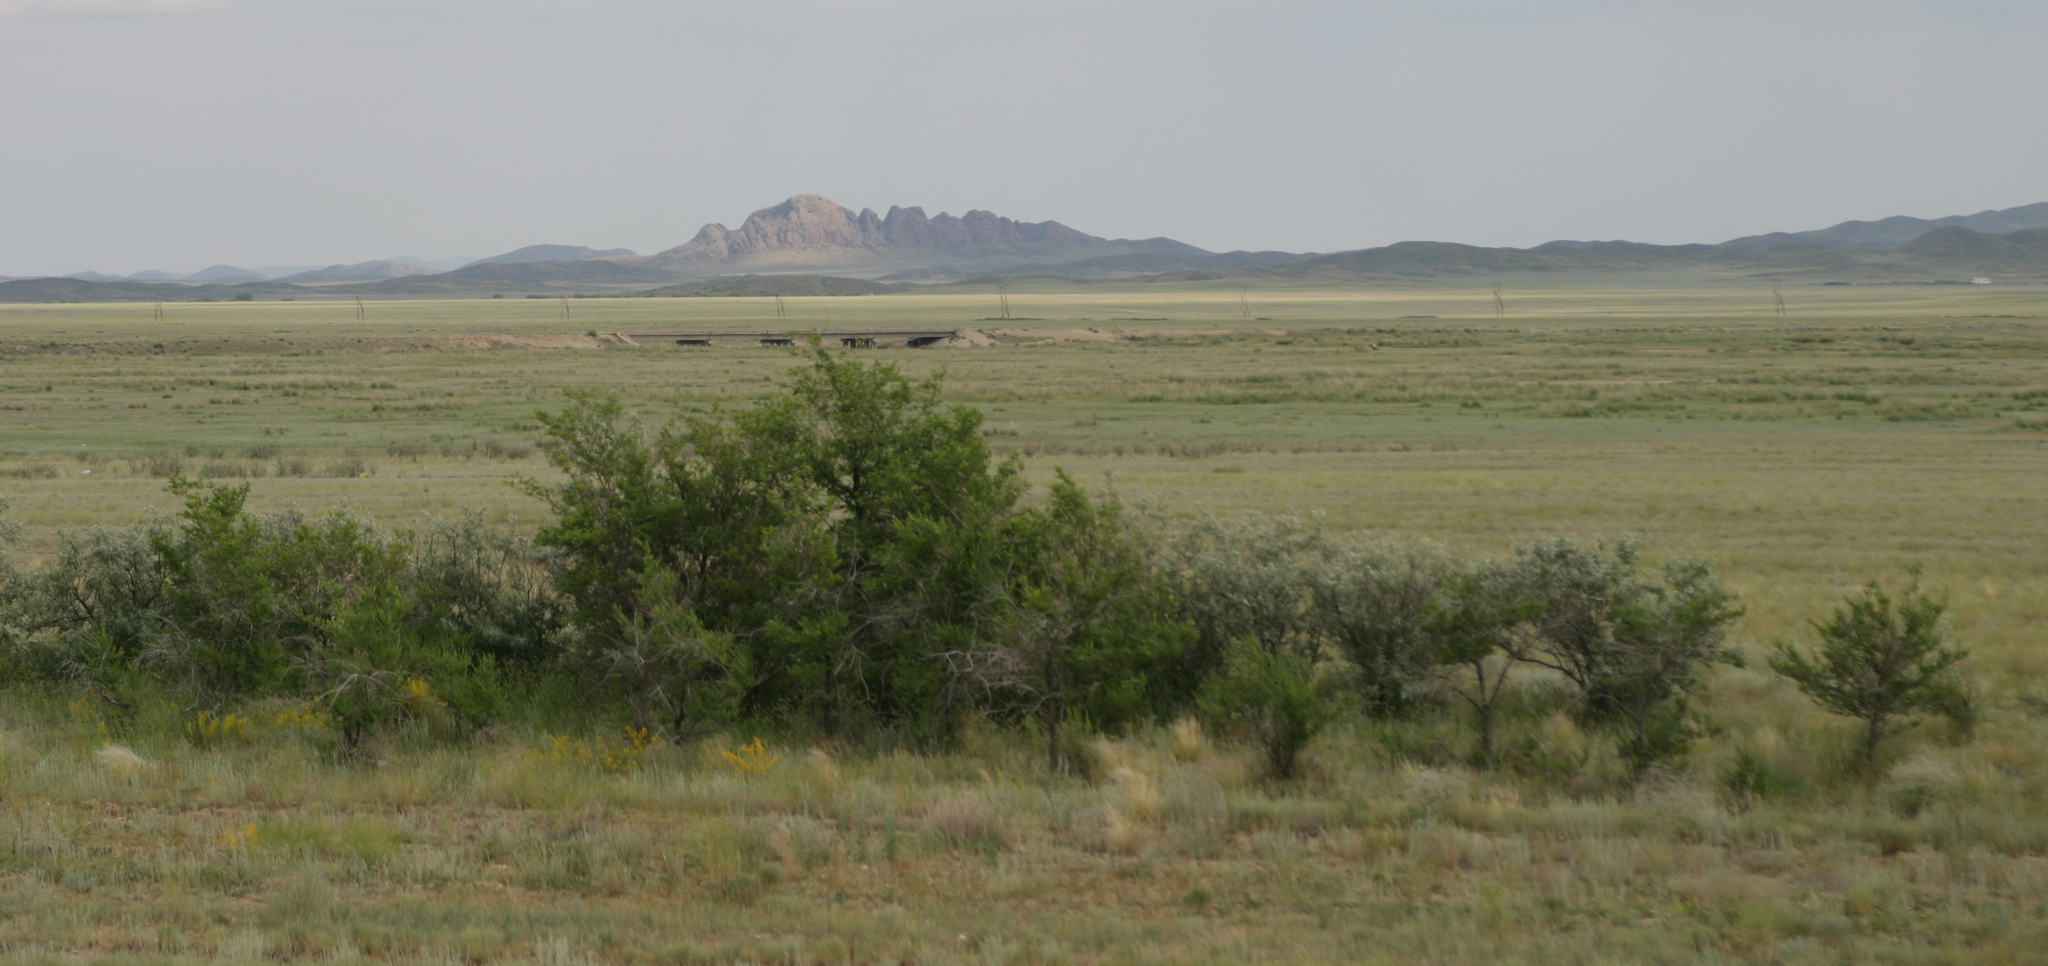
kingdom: Plantae
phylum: Tracheophyta
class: Magnoliopsida
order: Rosales
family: Ulmaceae
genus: Ulmus
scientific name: Ulmus pumila
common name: Siberian elm
